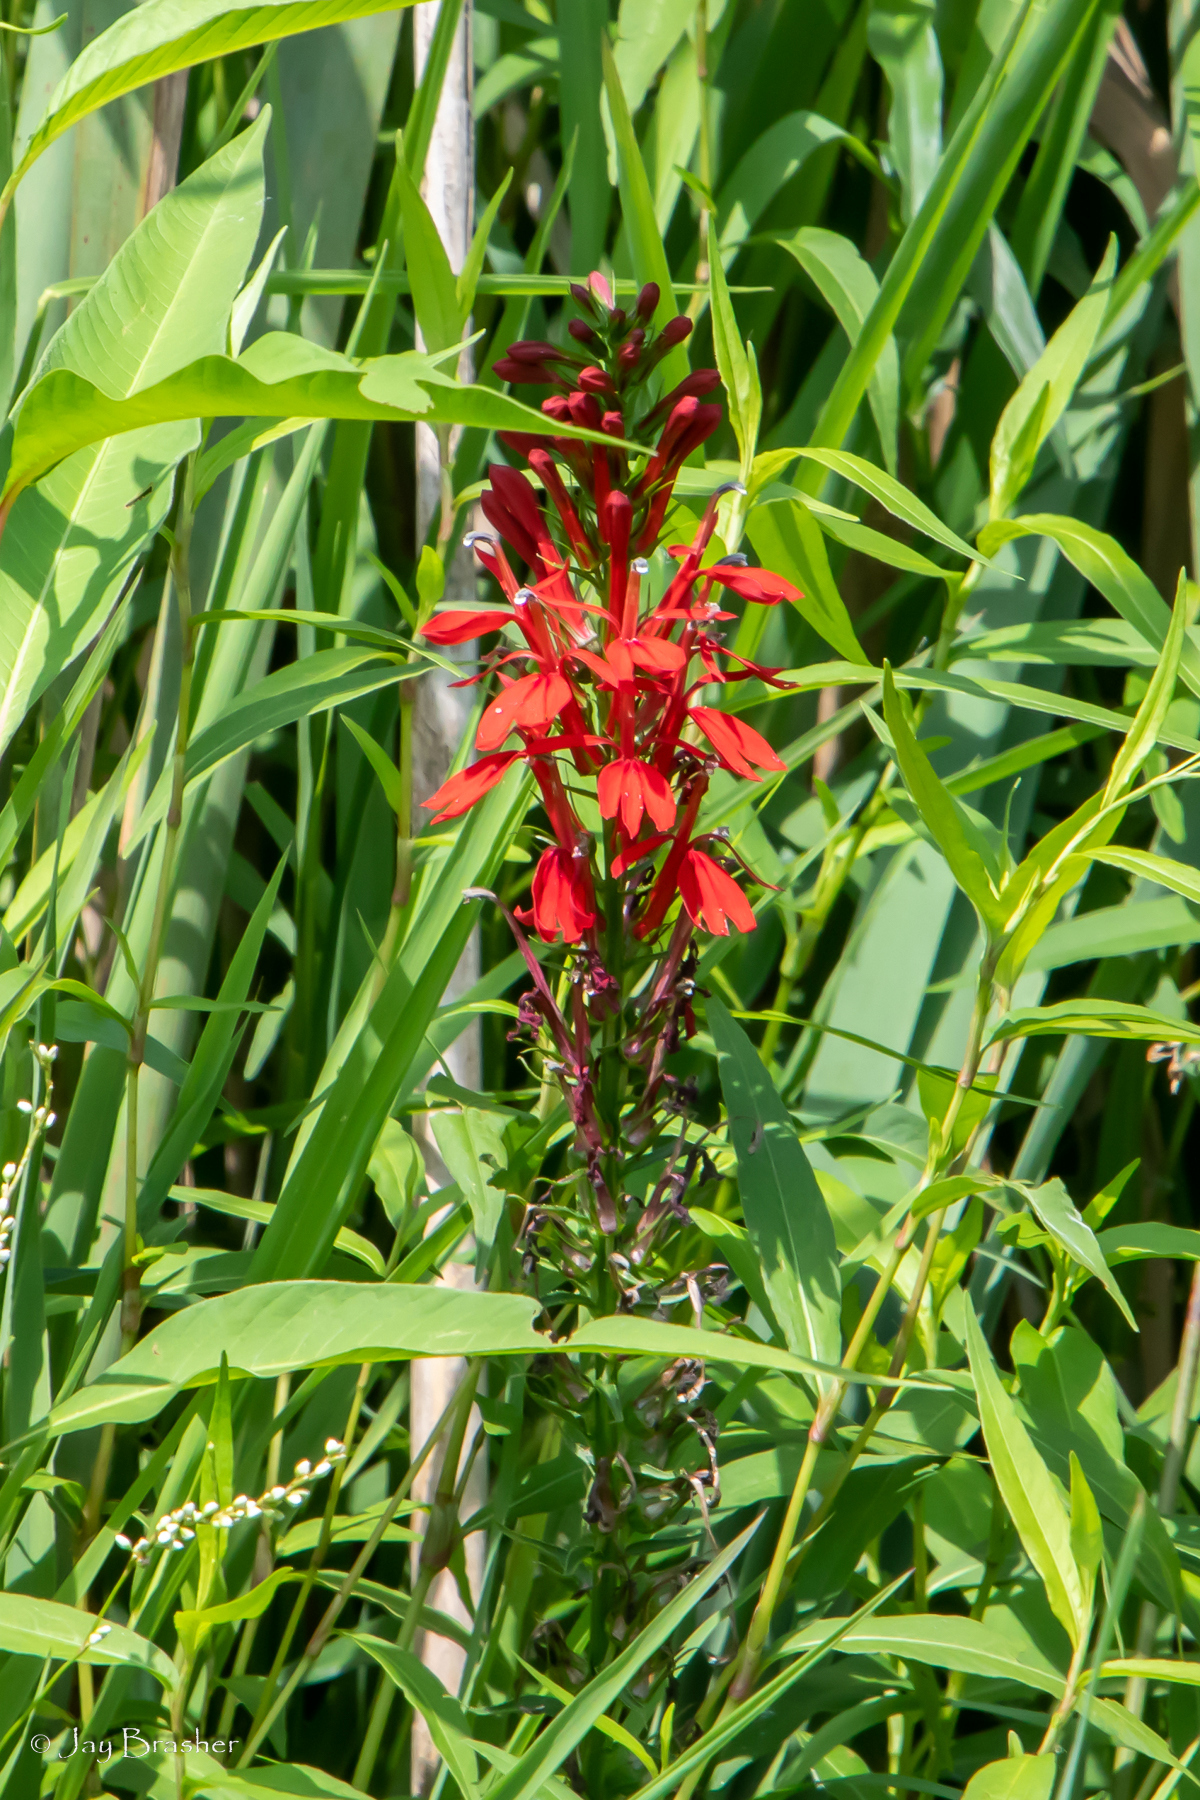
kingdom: Plantae
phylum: Tracheophyta
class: Magnoliopsida
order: Asterales
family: Campanulaceae
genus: Lobelia
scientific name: Lobelia cardinalis
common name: Cardinal flower
